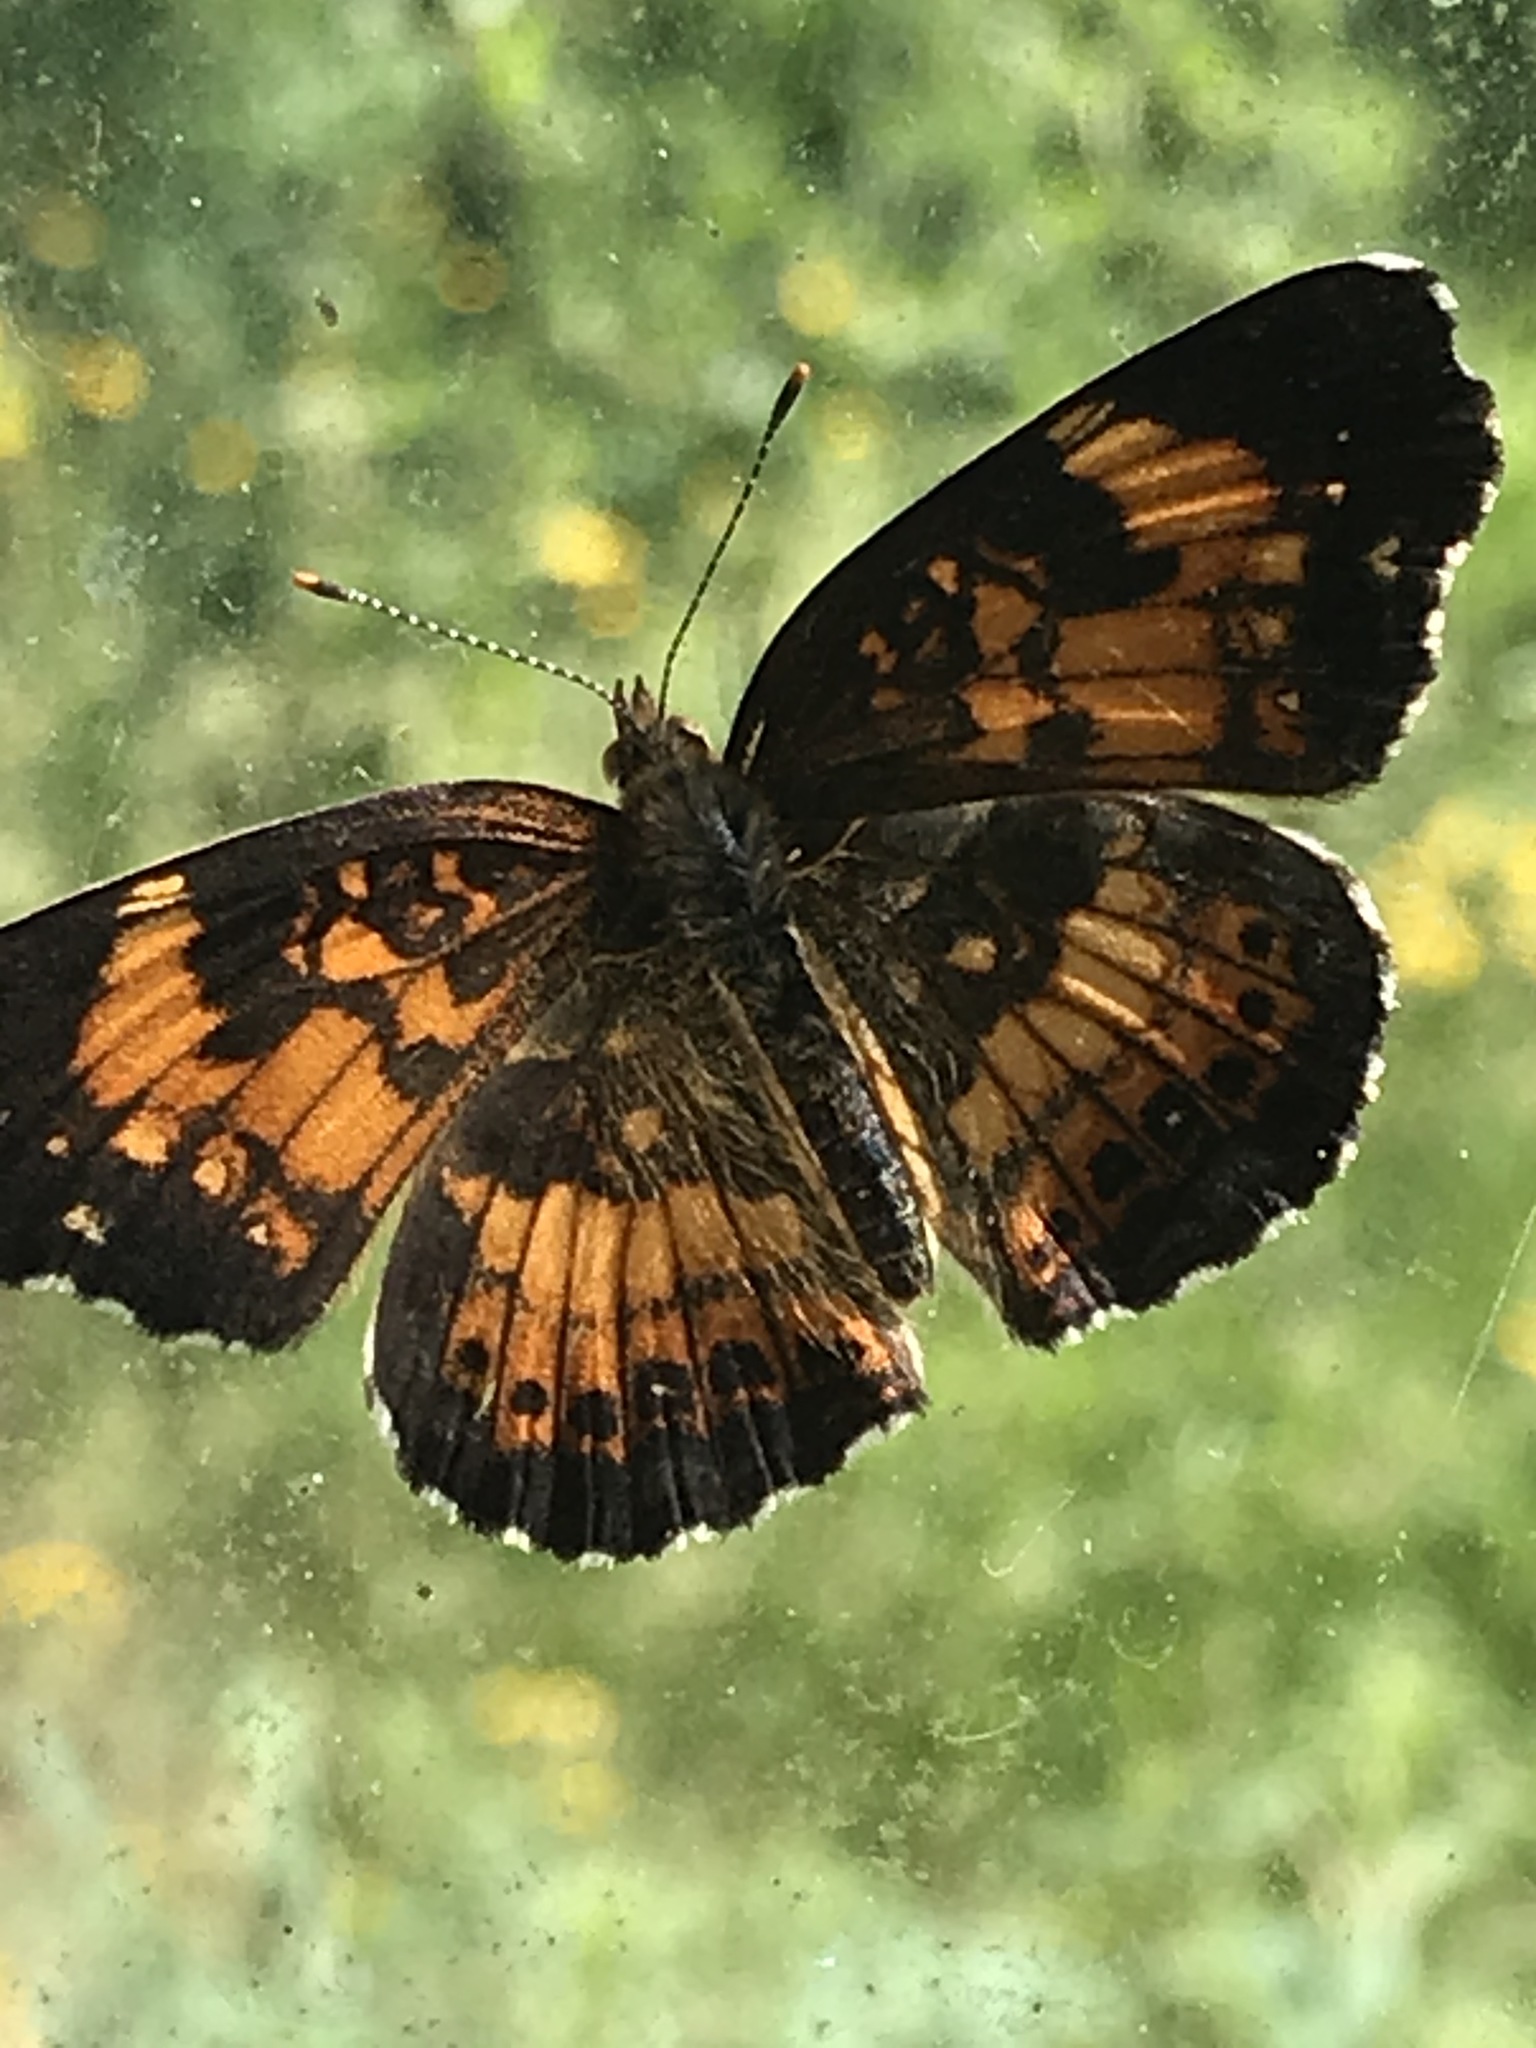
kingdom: Animalia
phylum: Arthropoda
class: Insecta
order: Lepidoptera
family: Nymphalidae
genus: Chlosyne
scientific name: Chlosyne nycteis
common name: Silvery checkerspot
